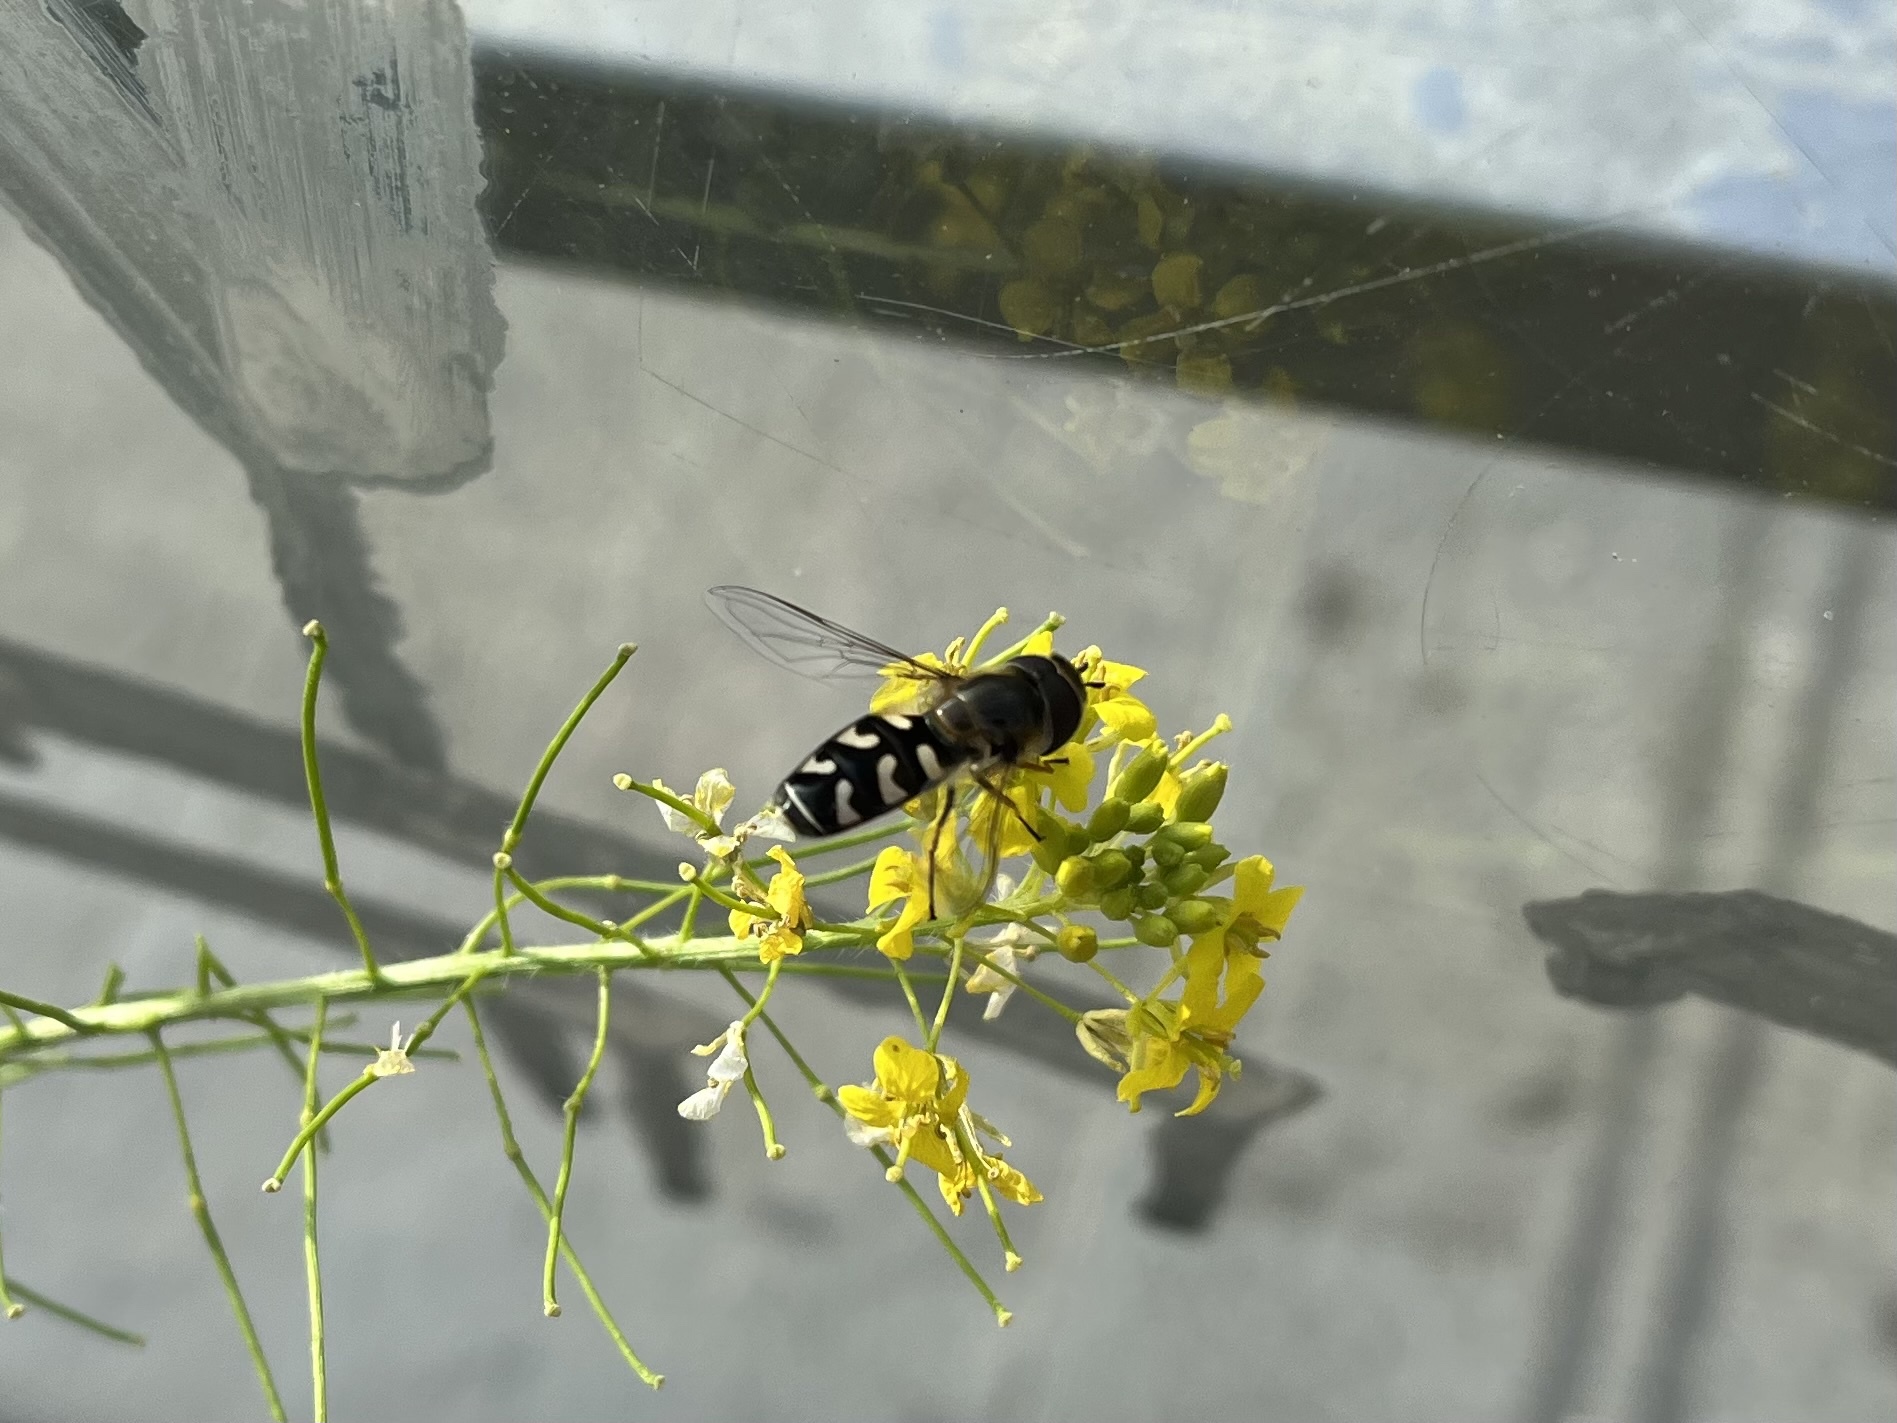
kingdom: Animalia
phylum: Arthropoda
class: Insecta
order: Diptera
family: Syrphidae
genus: Scaeva
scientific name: Scaeva pyrastri
